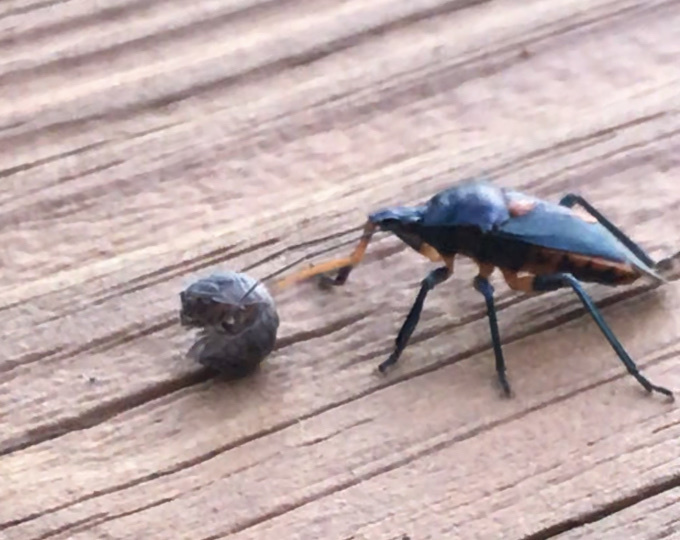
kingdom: Animalia
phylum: Arthropoda
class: Insecta
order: Hemiptera
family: Pentatomidae
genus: Euthyrhynchus
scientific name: Euthyrhynchus floridanus
